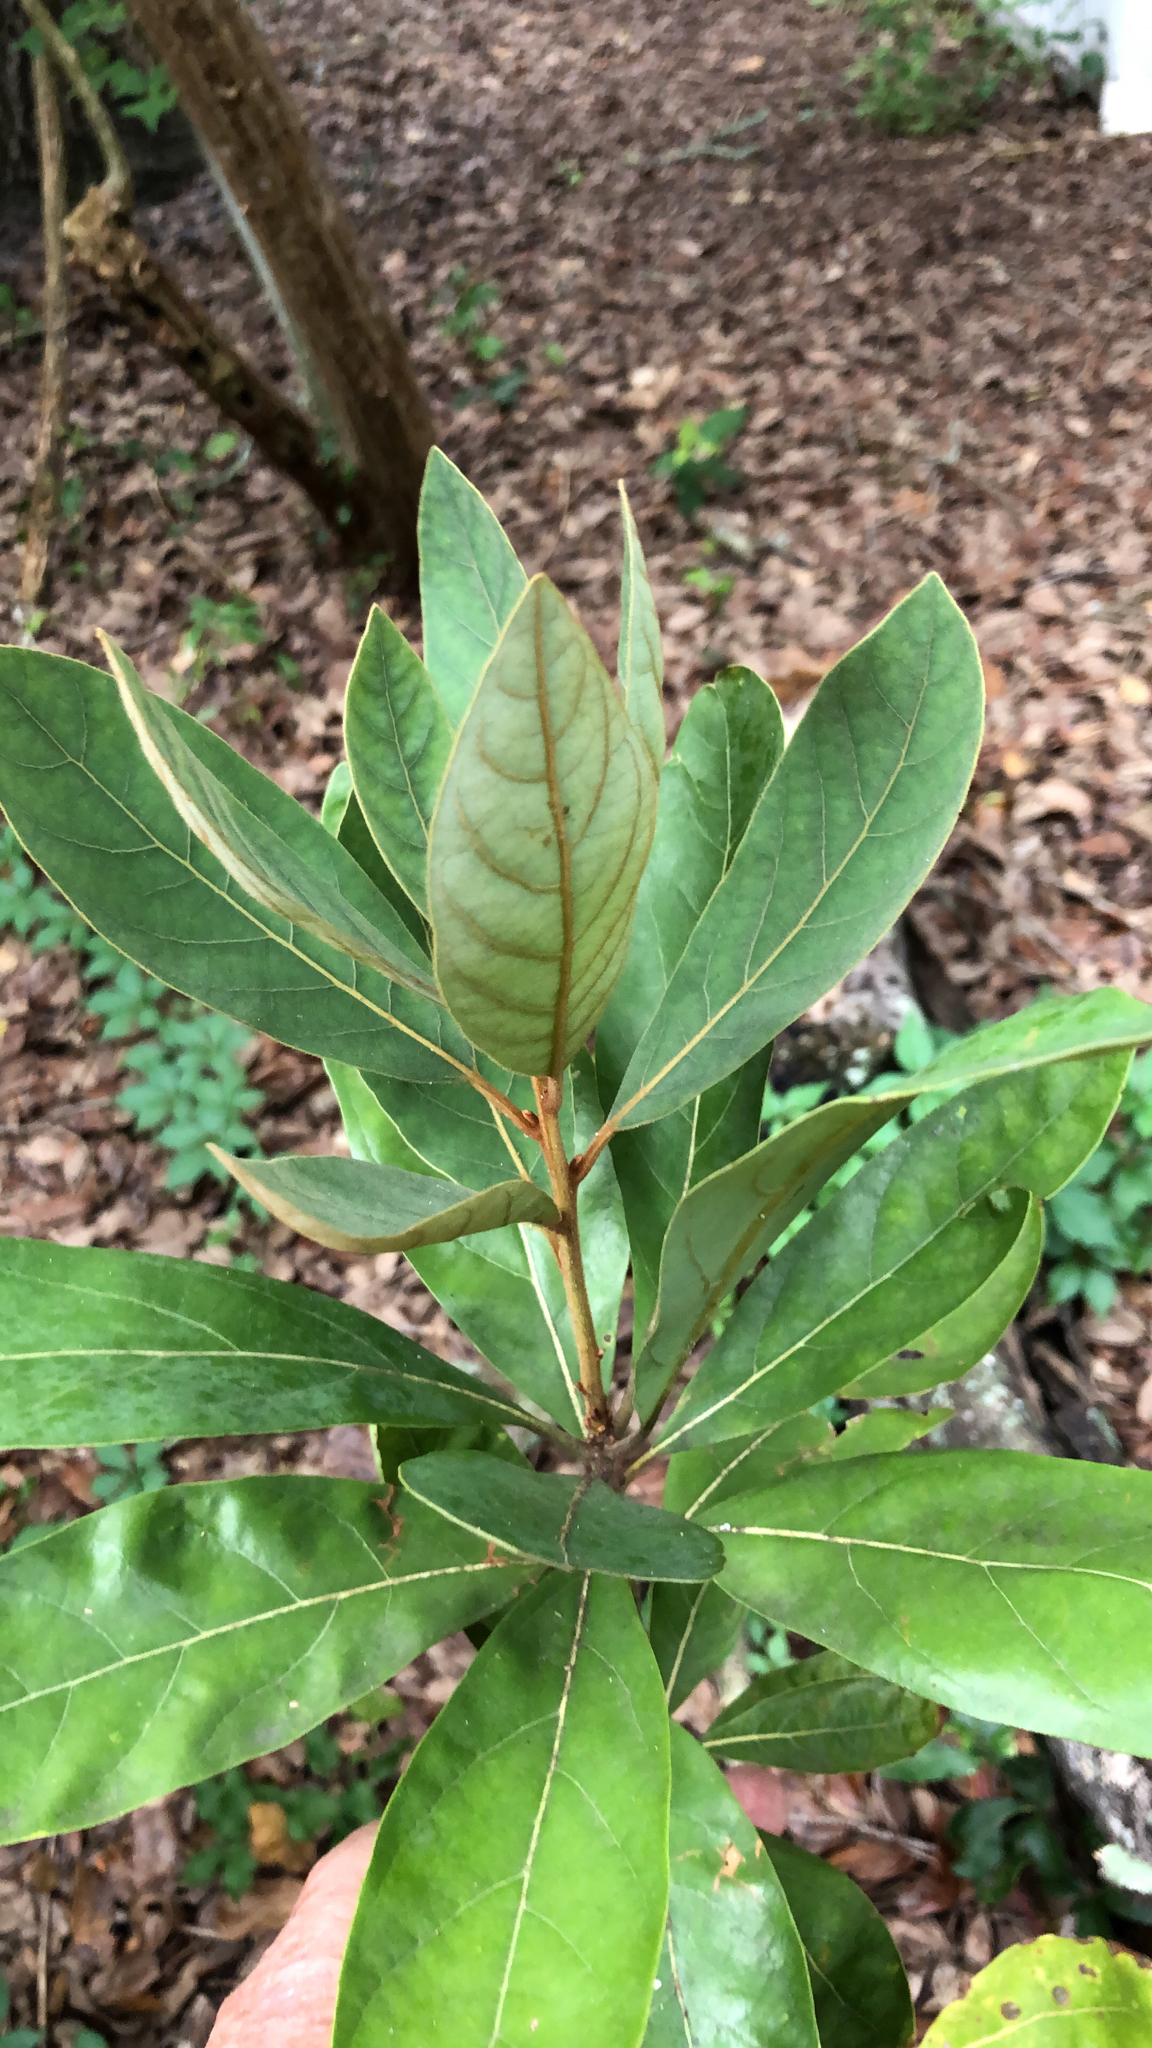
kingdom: Plantae
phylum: Tracheophyta
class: Magnoliopsida
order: Laurales
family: Lauraceae
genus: Persea
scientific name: Persea palustris
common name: Swampbay
